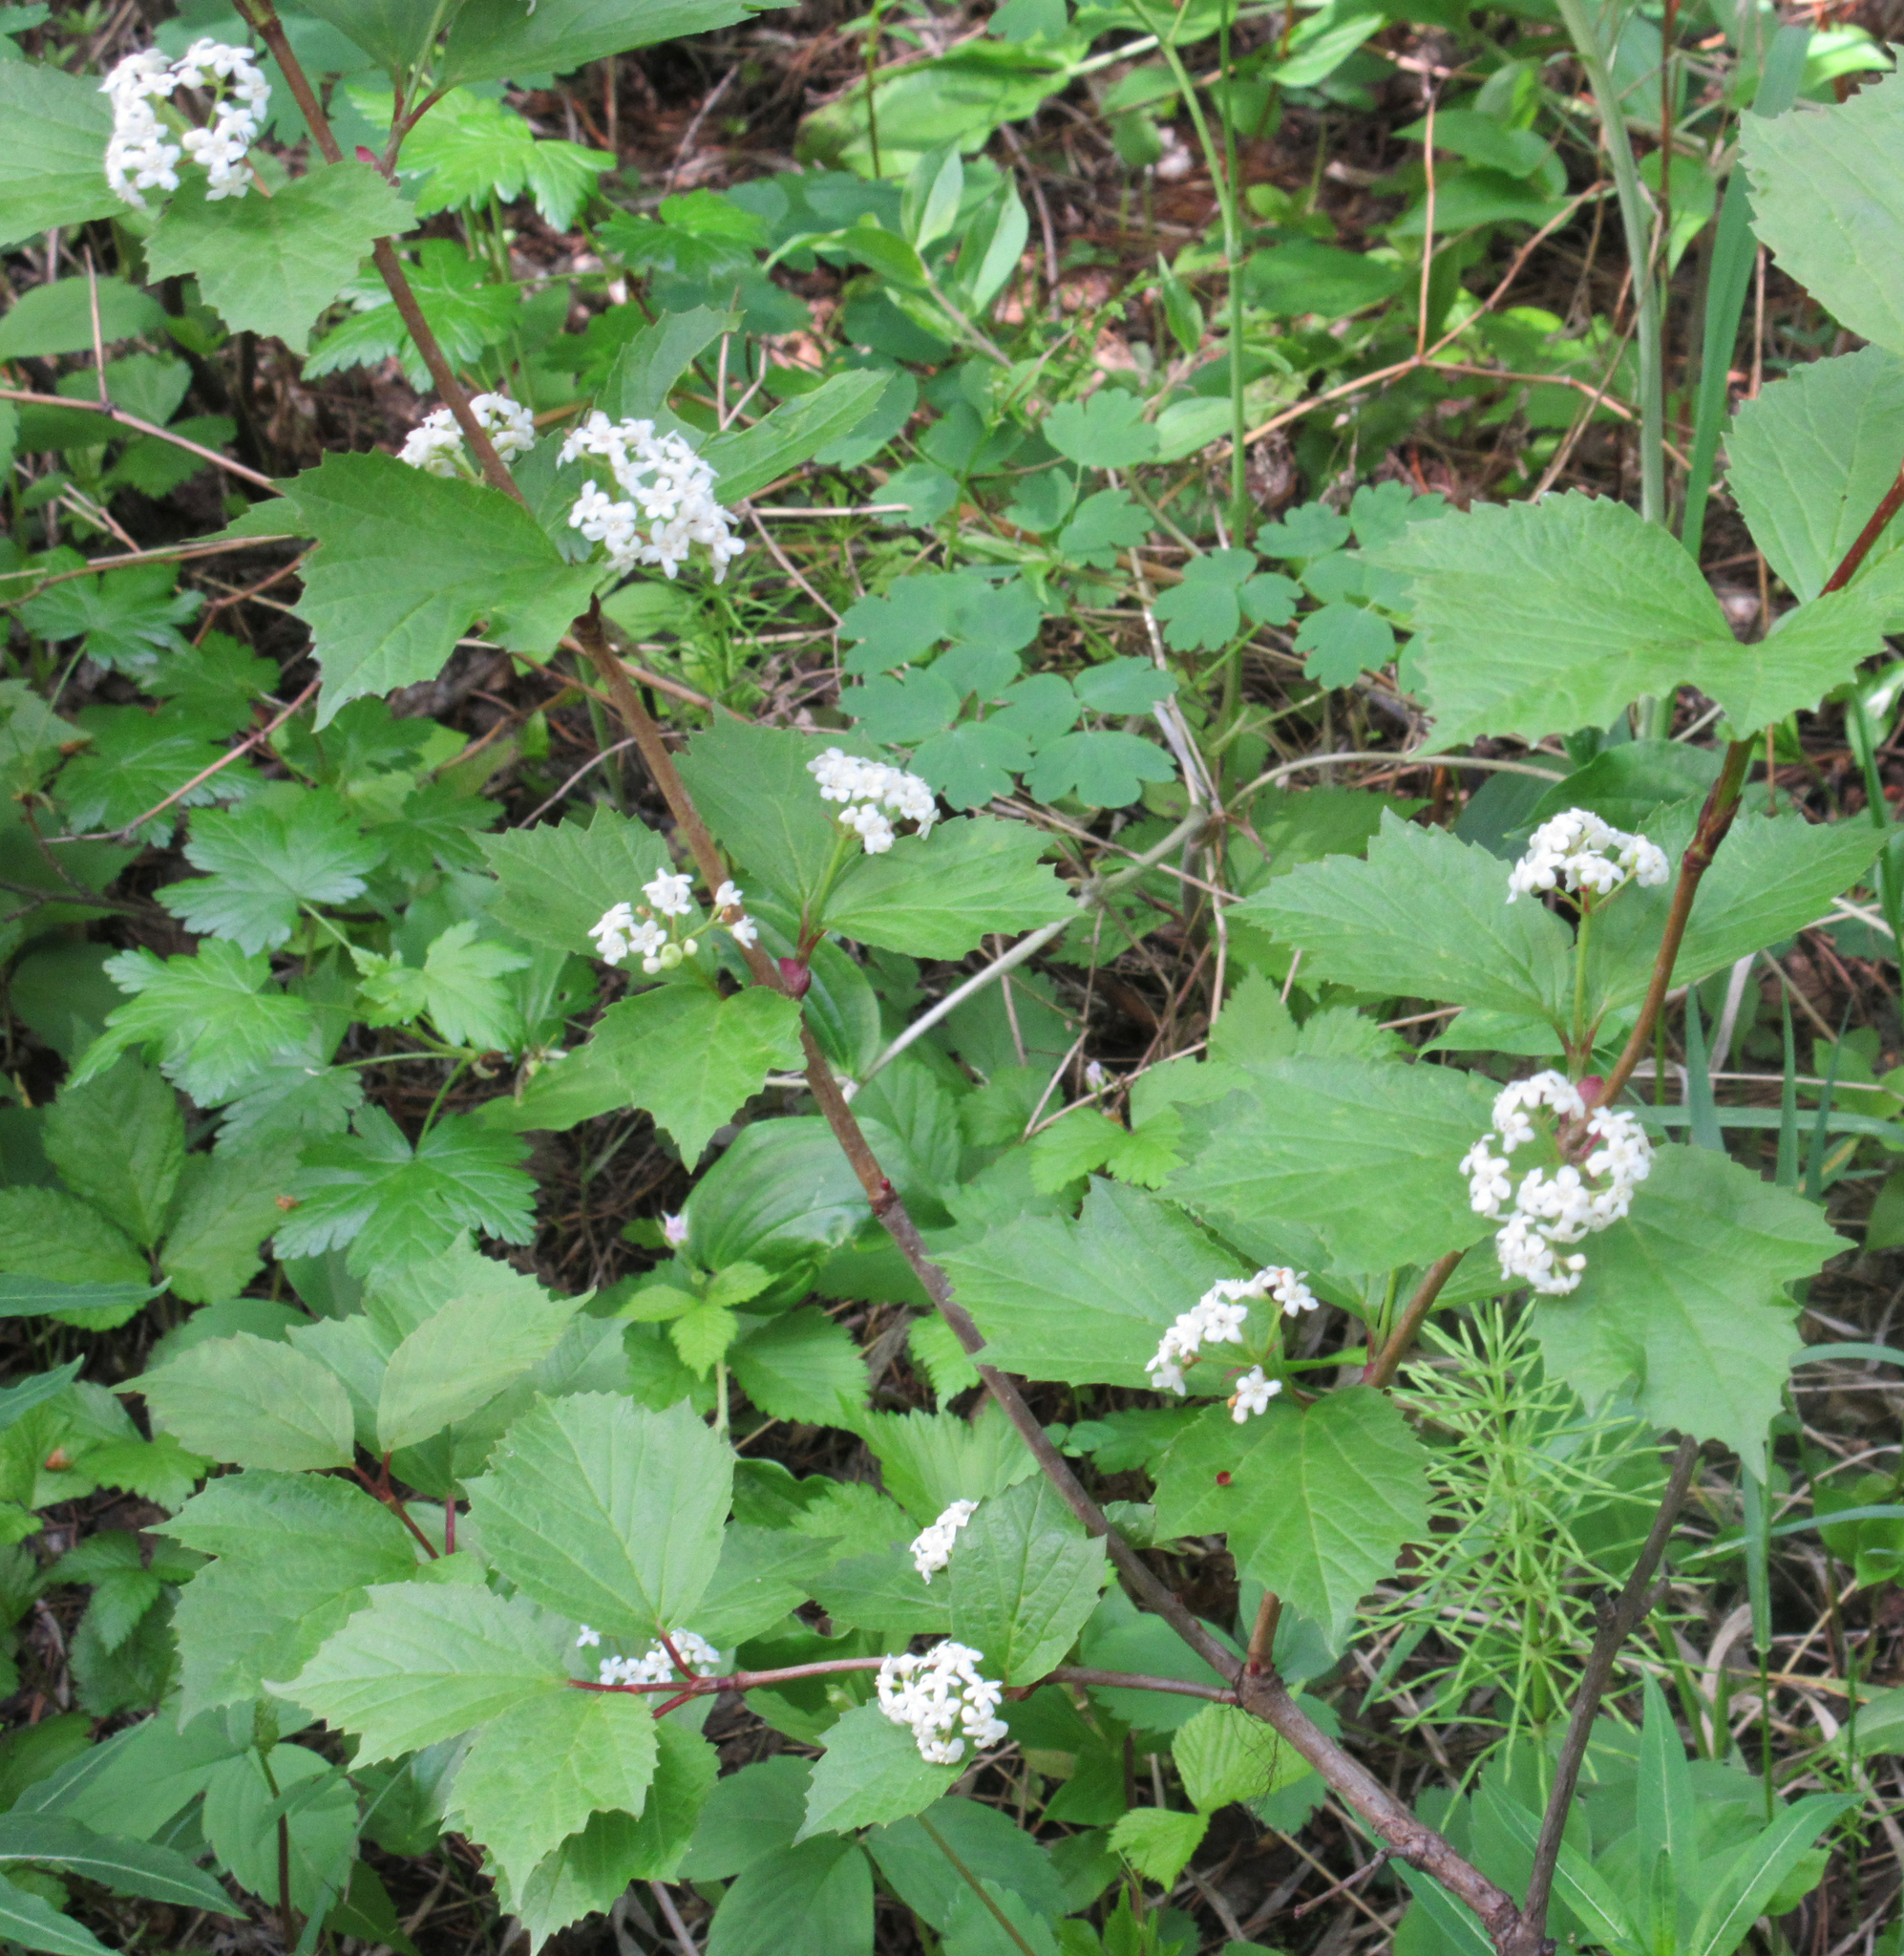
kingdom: Plantae
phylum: Tracheophyta
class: Magnoliopsida
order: Dipsacales
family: Viburnaceae
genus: Viburnum
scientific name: Viburnum edule
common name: Mooseberry
